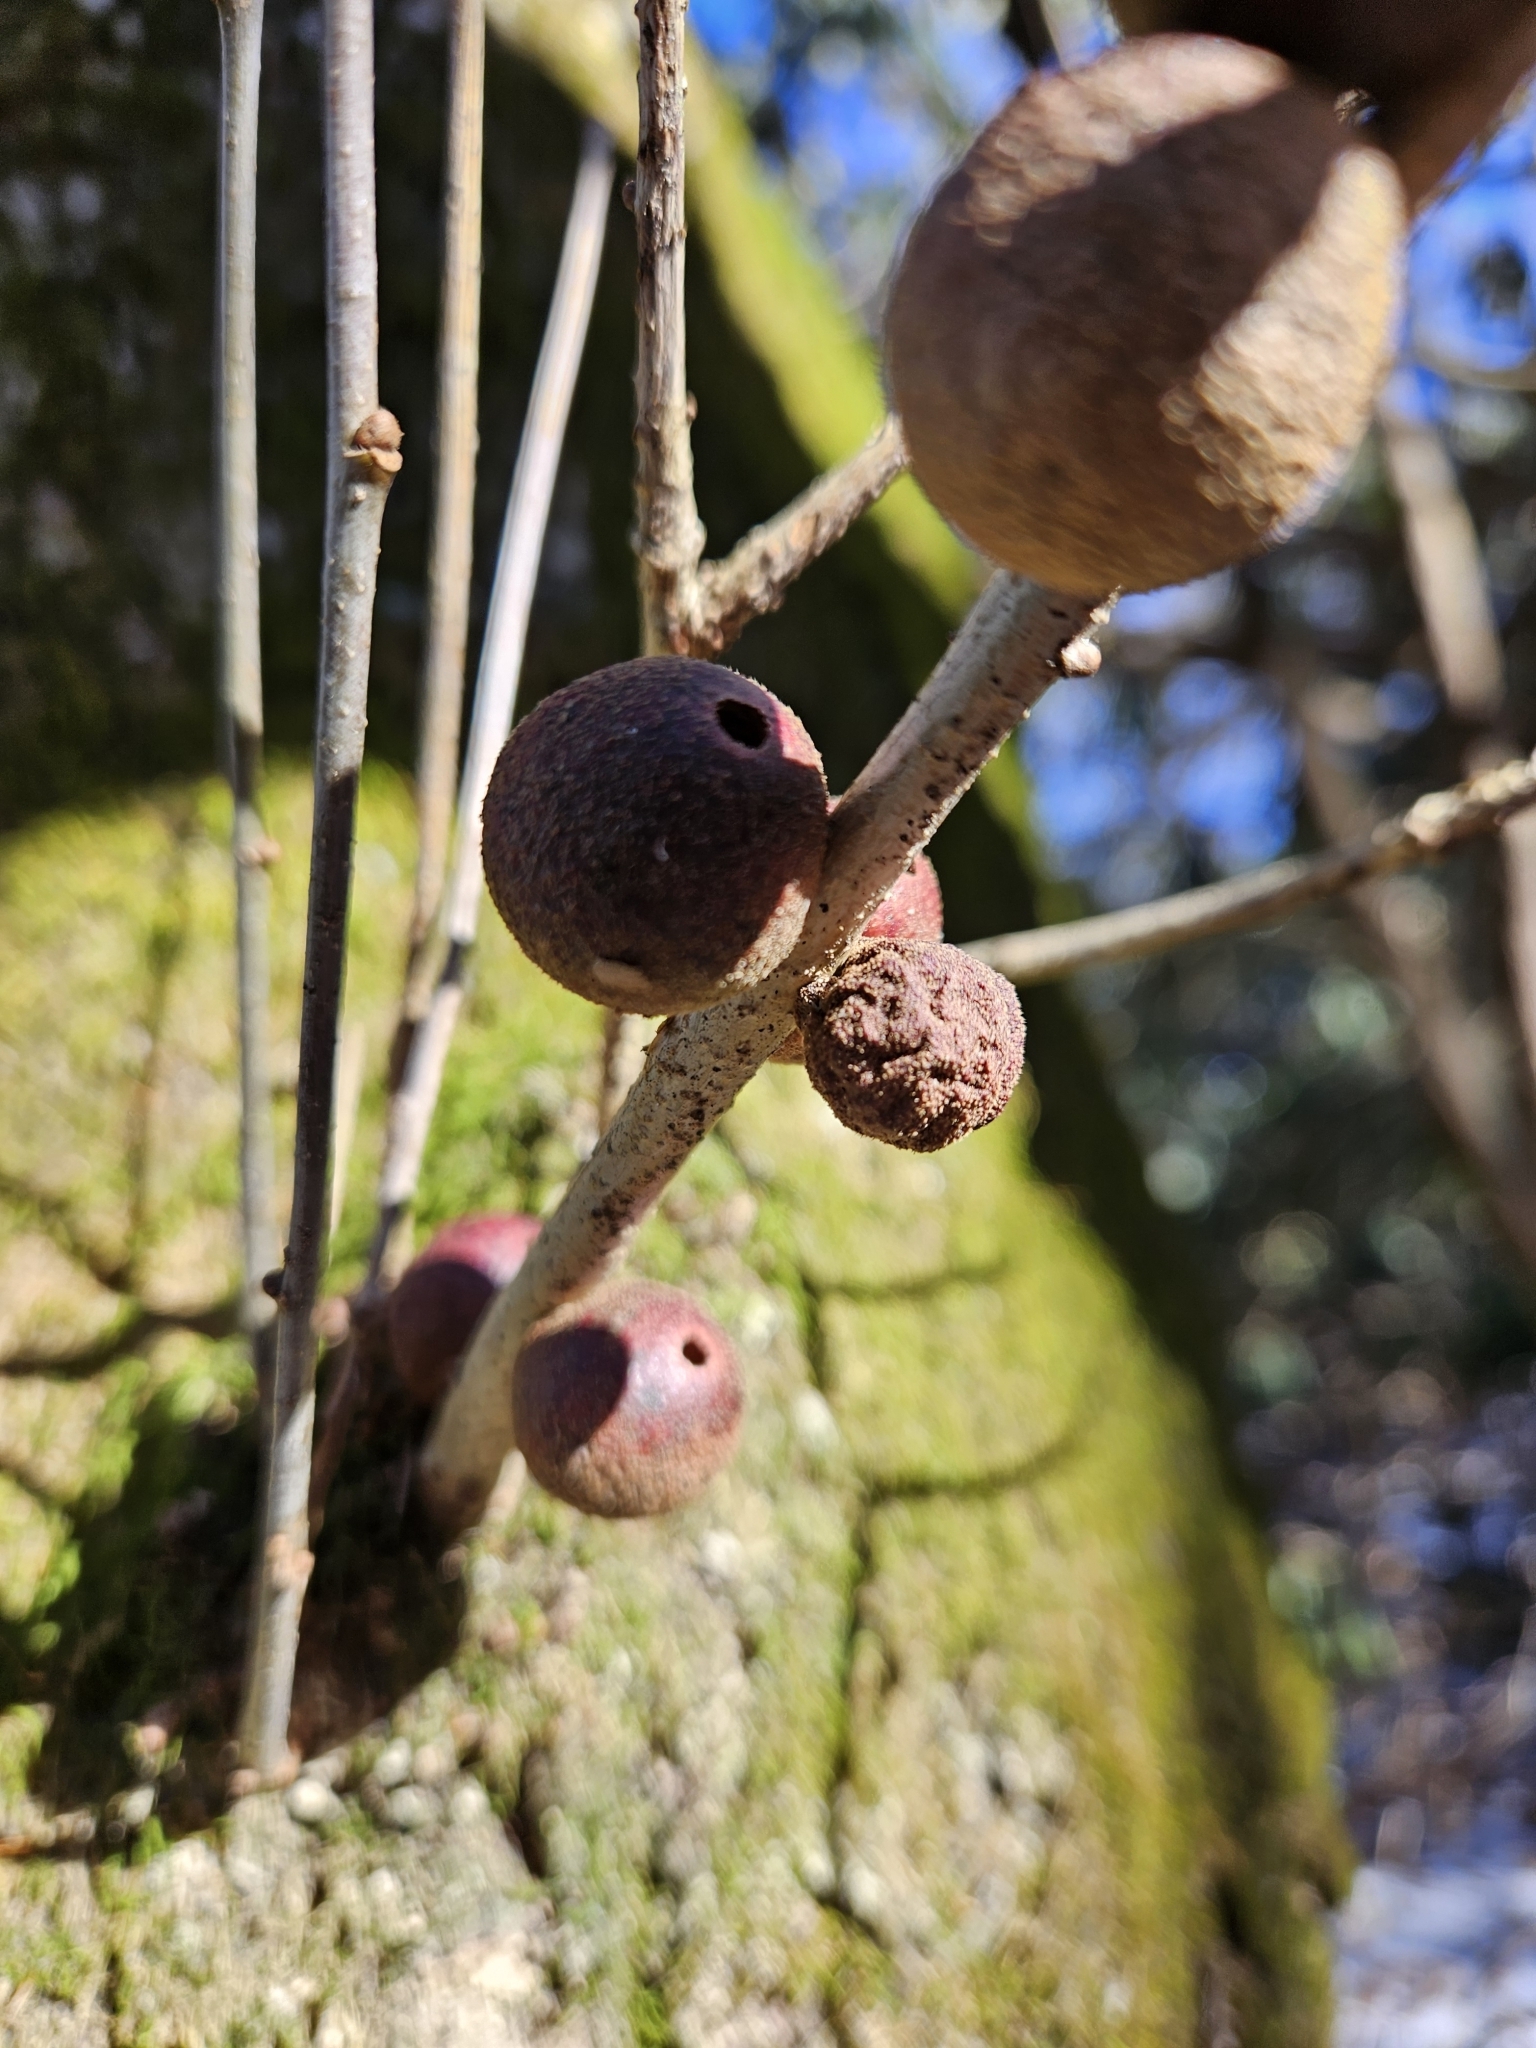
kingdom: Animalia
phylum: Arthropoda
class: Insecta
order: Hymenoptera
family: Cynipidae
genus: Disholcaspis
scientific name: Disholcaspis
